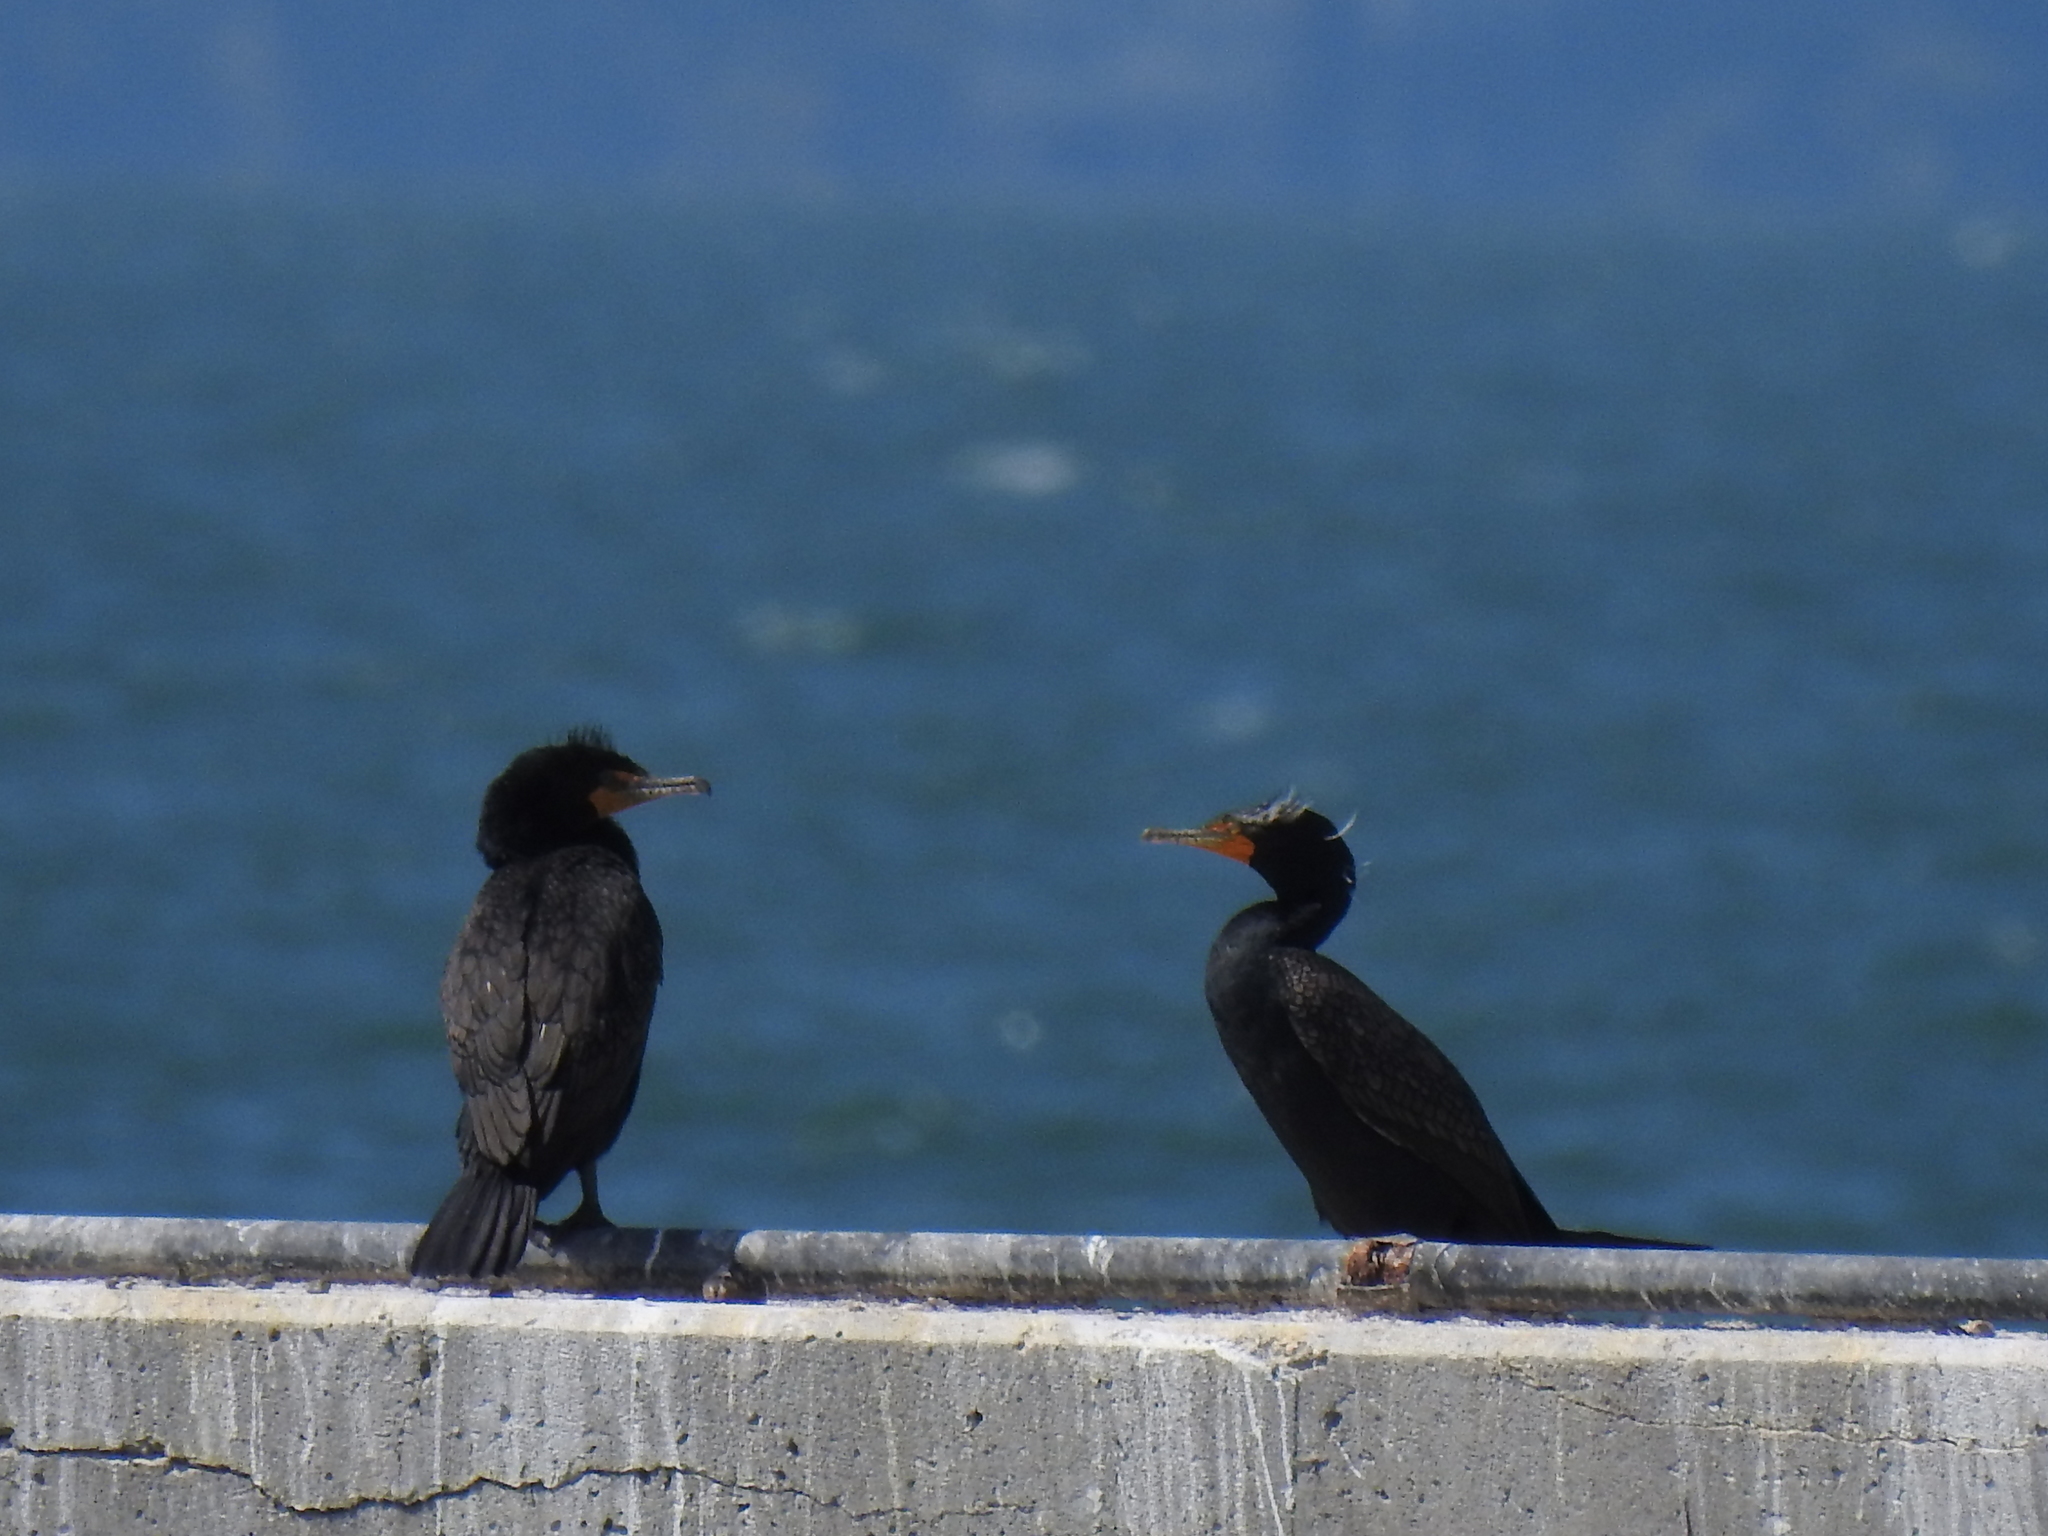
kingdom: Animalia
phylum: Chordata
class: Aves
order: Suliformes
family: Phalacrocoracidae
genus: Phalacrocorax
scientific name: Phalacrocorax auritus
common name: Double-crested cormorant
